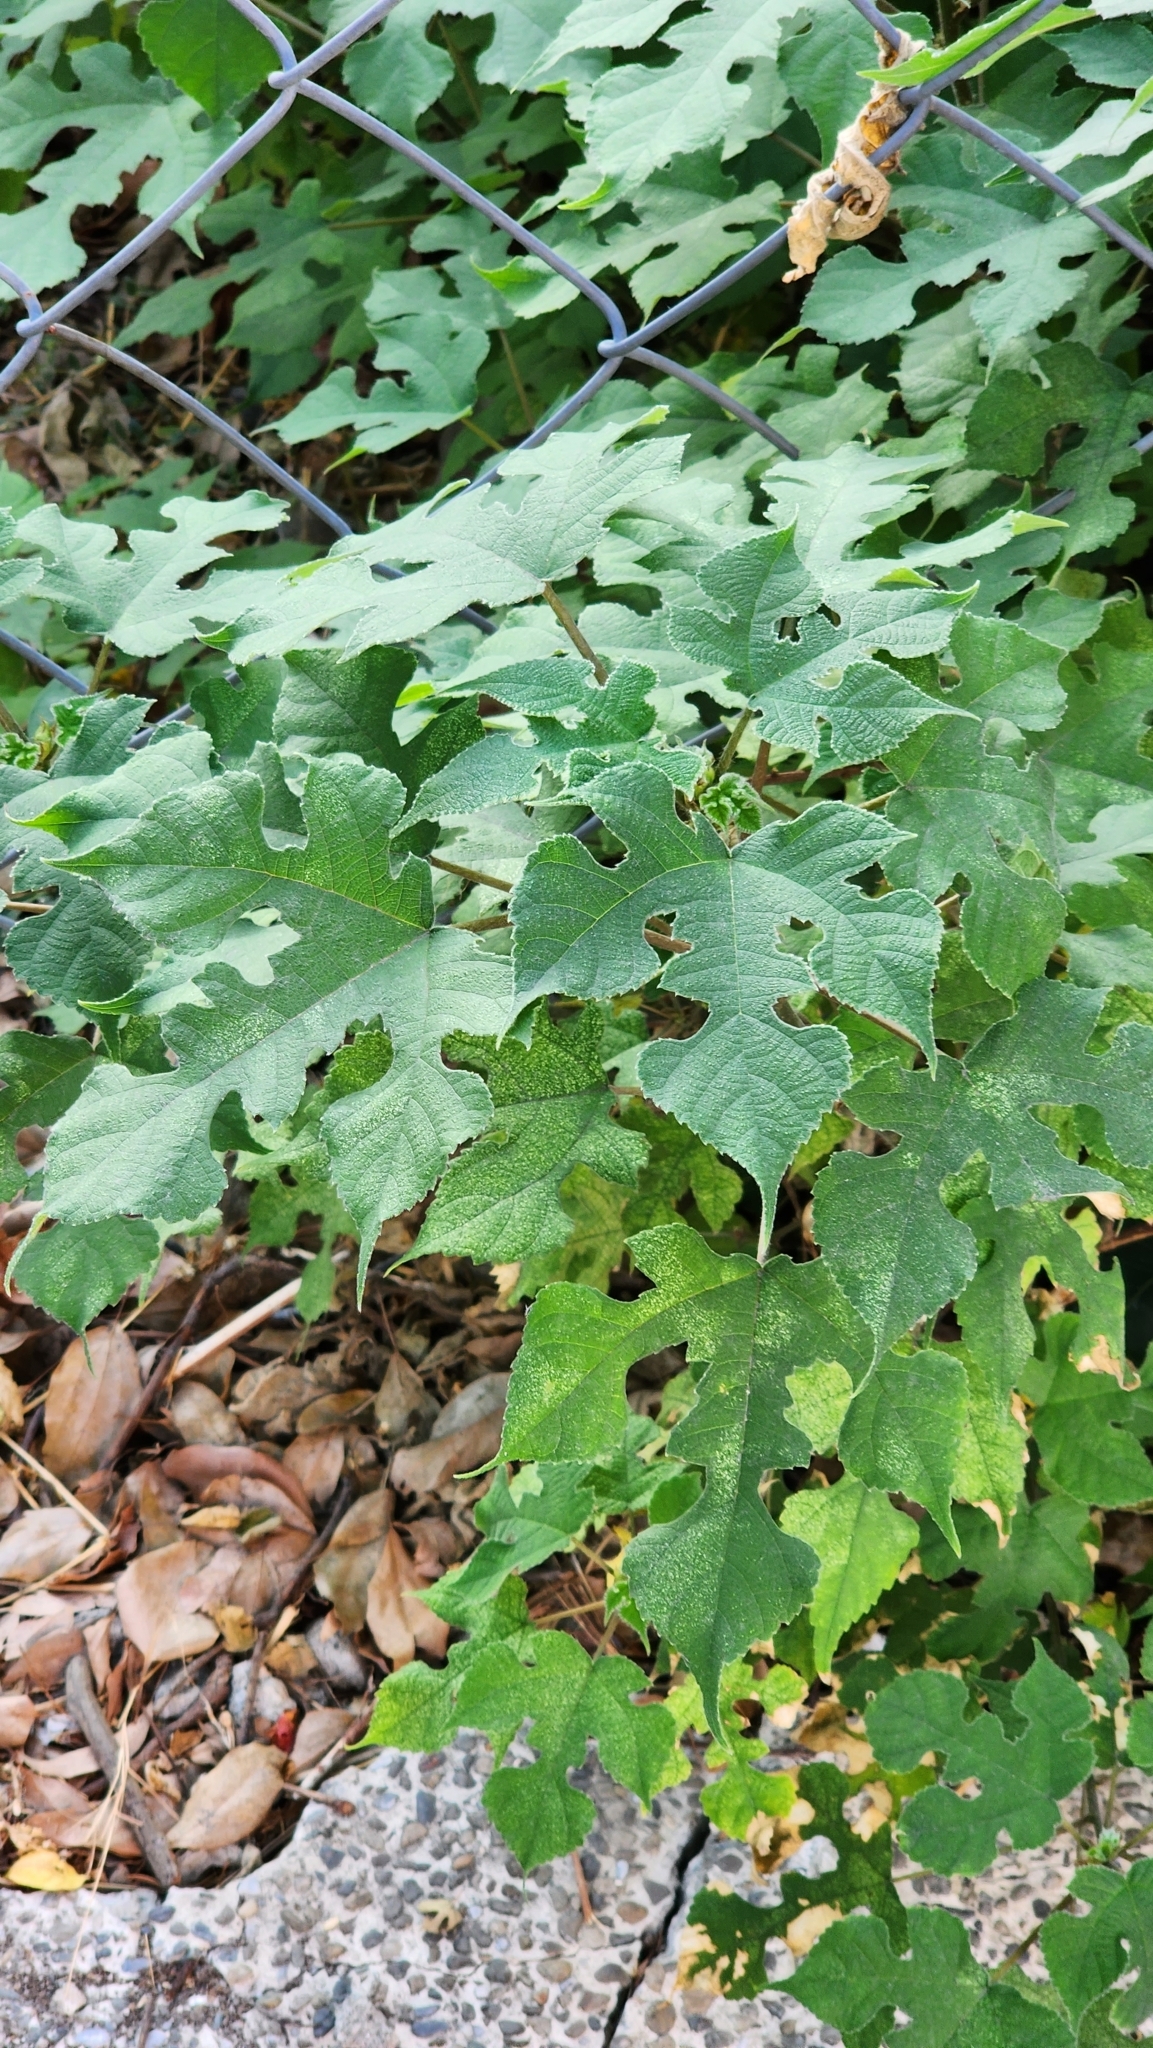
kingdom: Plantae
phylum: Tracheophyta
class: Magnoliopsida
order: Rosales
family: Moraceae
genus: Broussonetia
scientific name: Broussonetia papyrifera
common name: Paper mulberry
